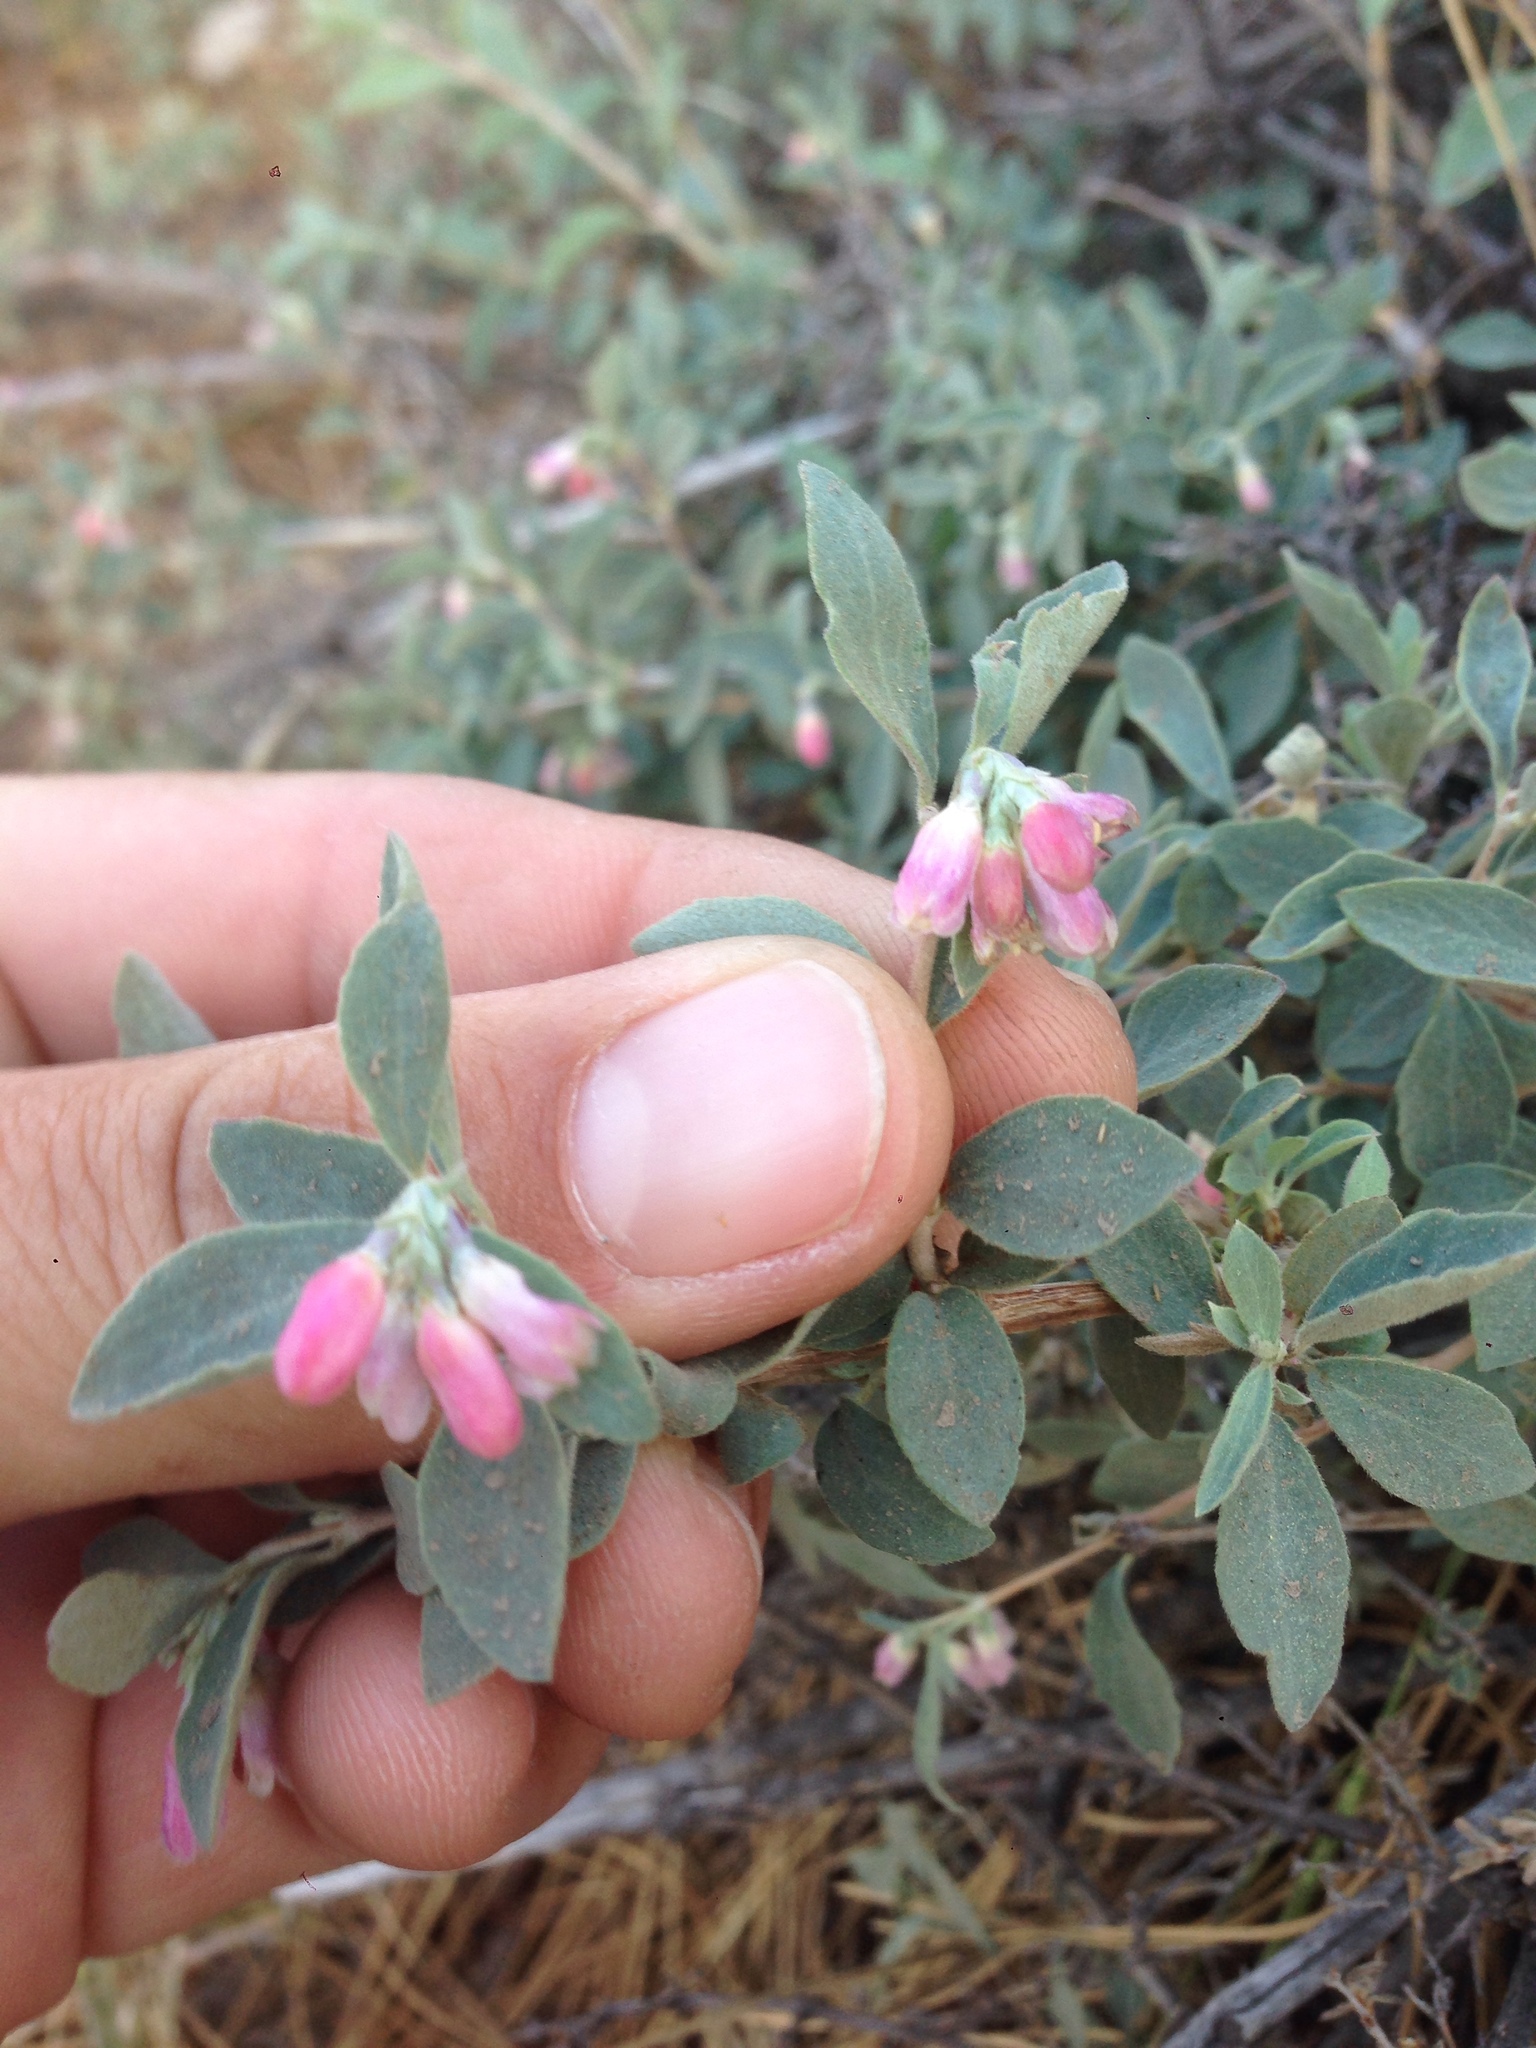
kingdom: Plantae
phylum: Tracheophyta
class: Magnoliopsida
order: Dipsacales
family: Caprifoliaceae
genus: Symphoricarpos
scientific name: Symphoricarpos parishii
